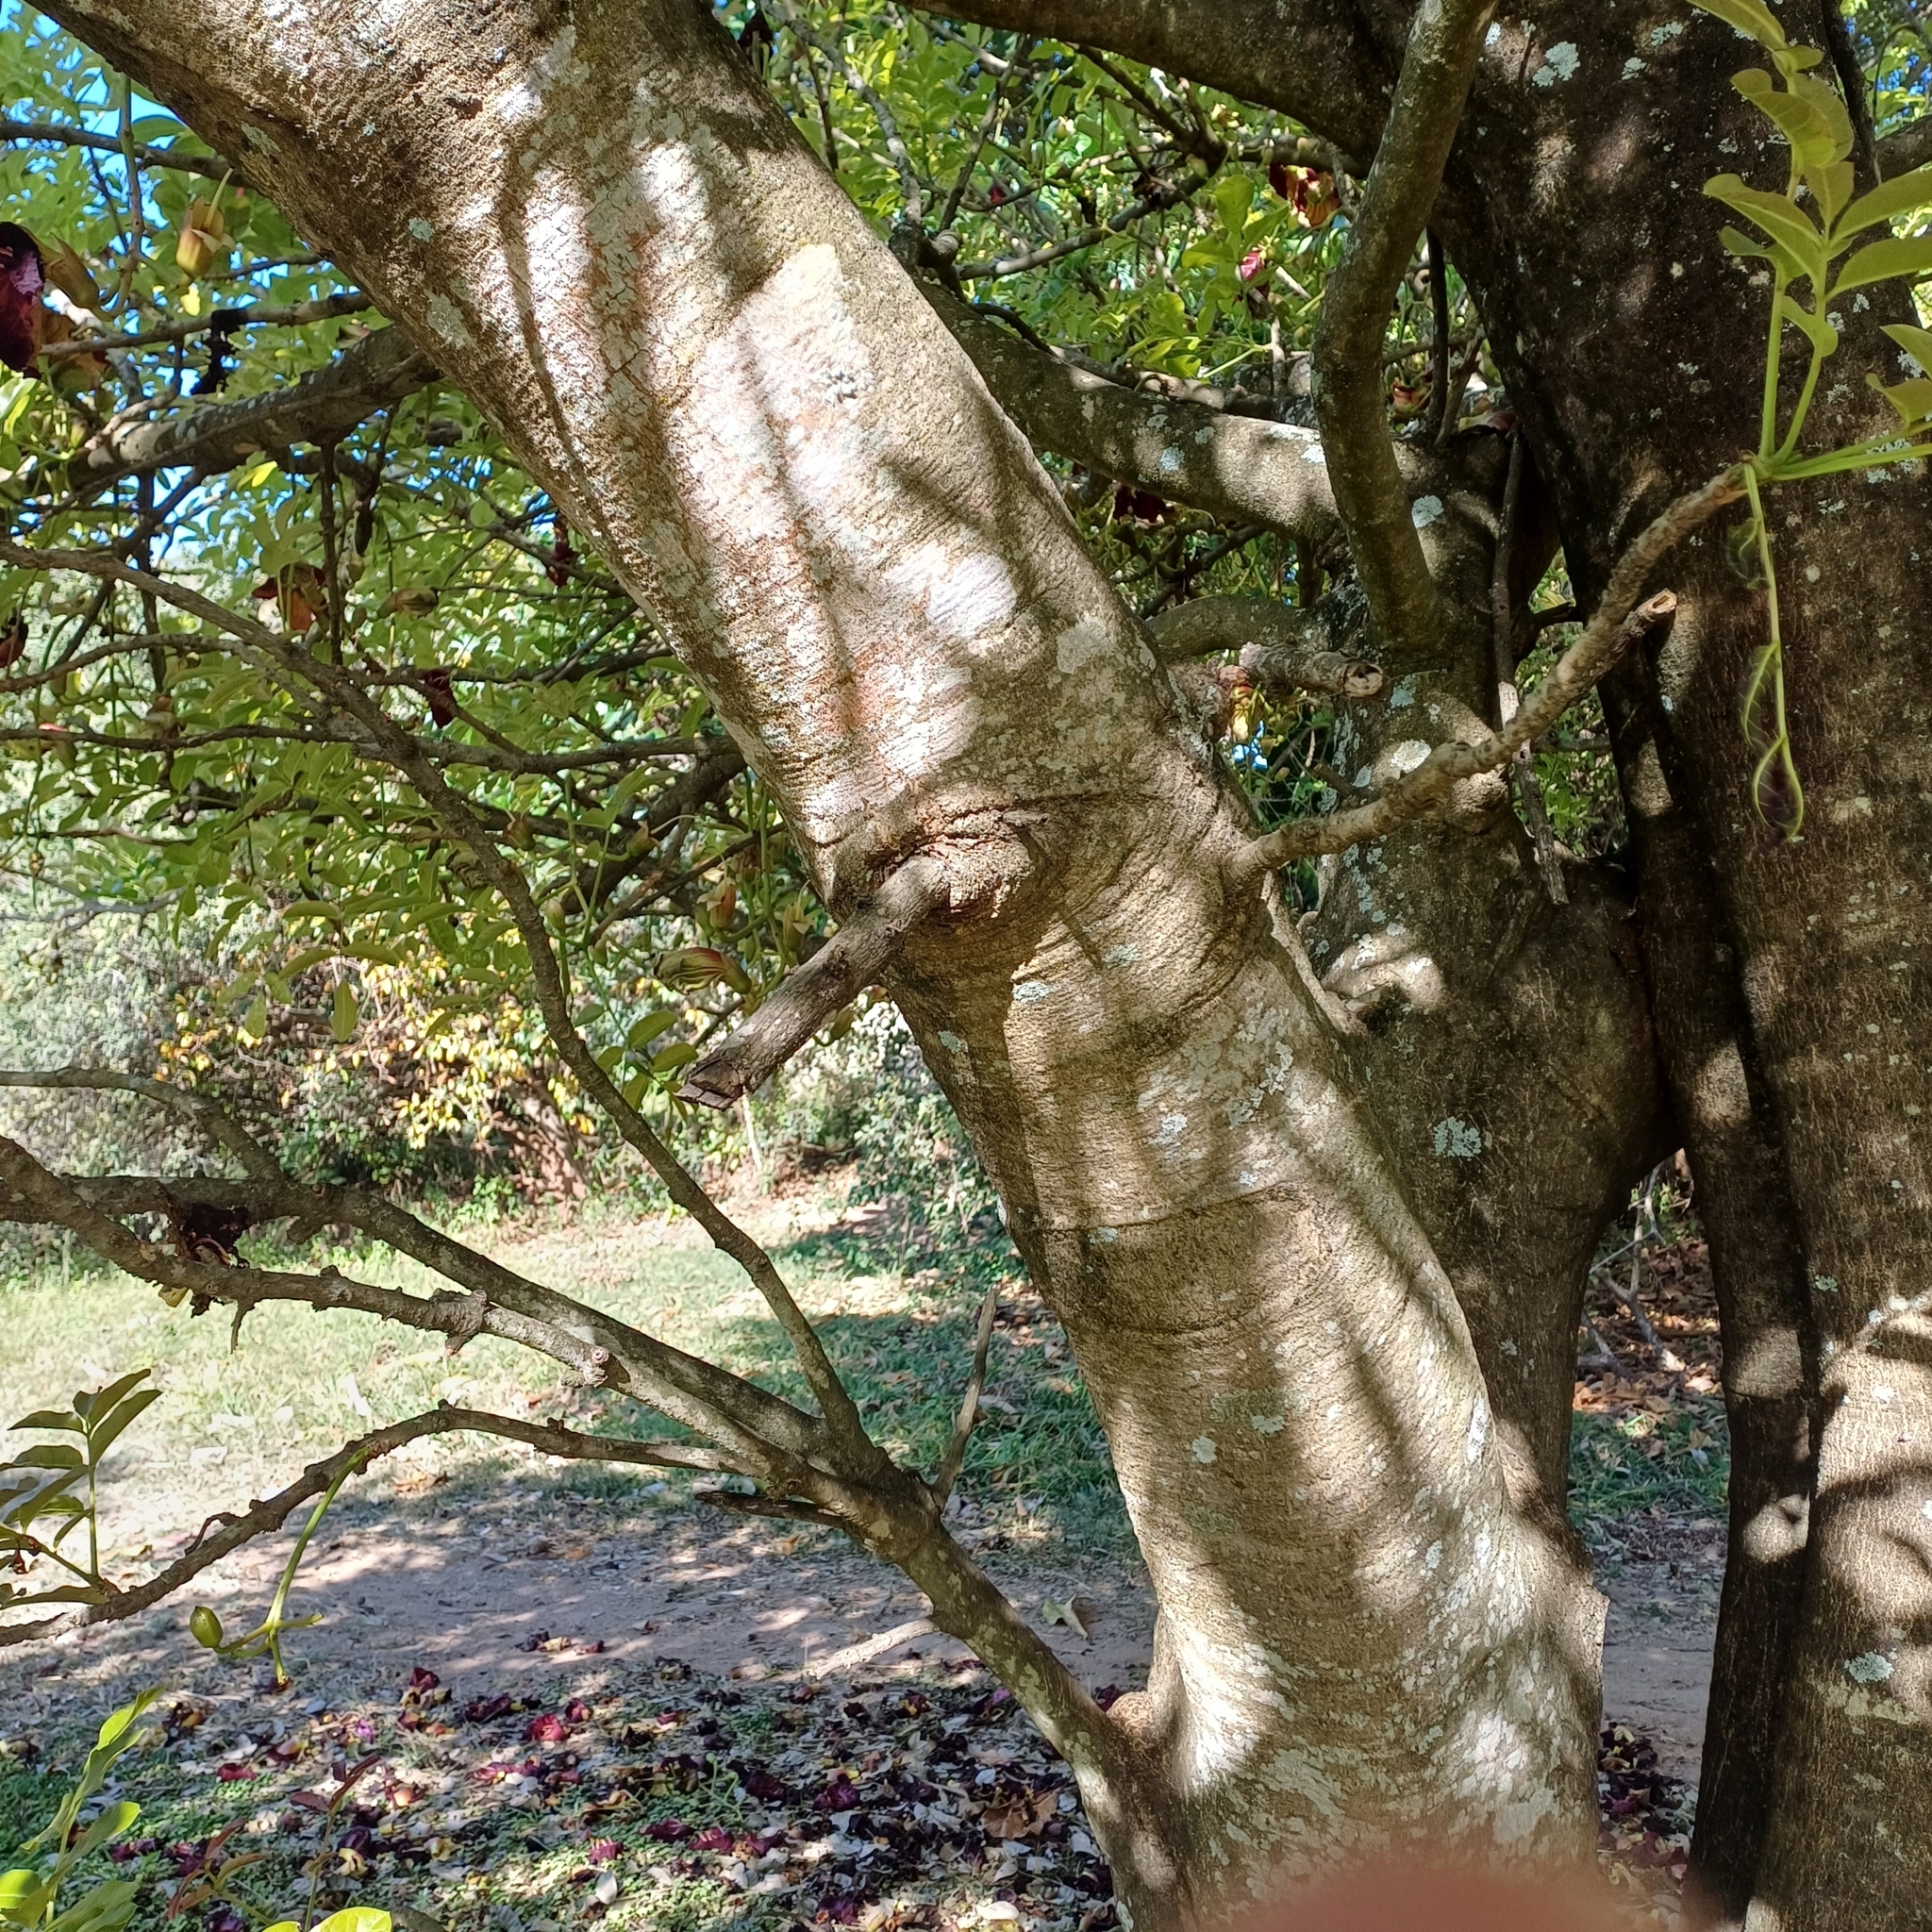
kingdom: Plantae
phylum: Tracheophyta
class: Magnoliopsida
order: Lamiales
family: Bignoniaceae
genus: Kigelia
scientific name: Kigelia africana
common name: Sausage tree
